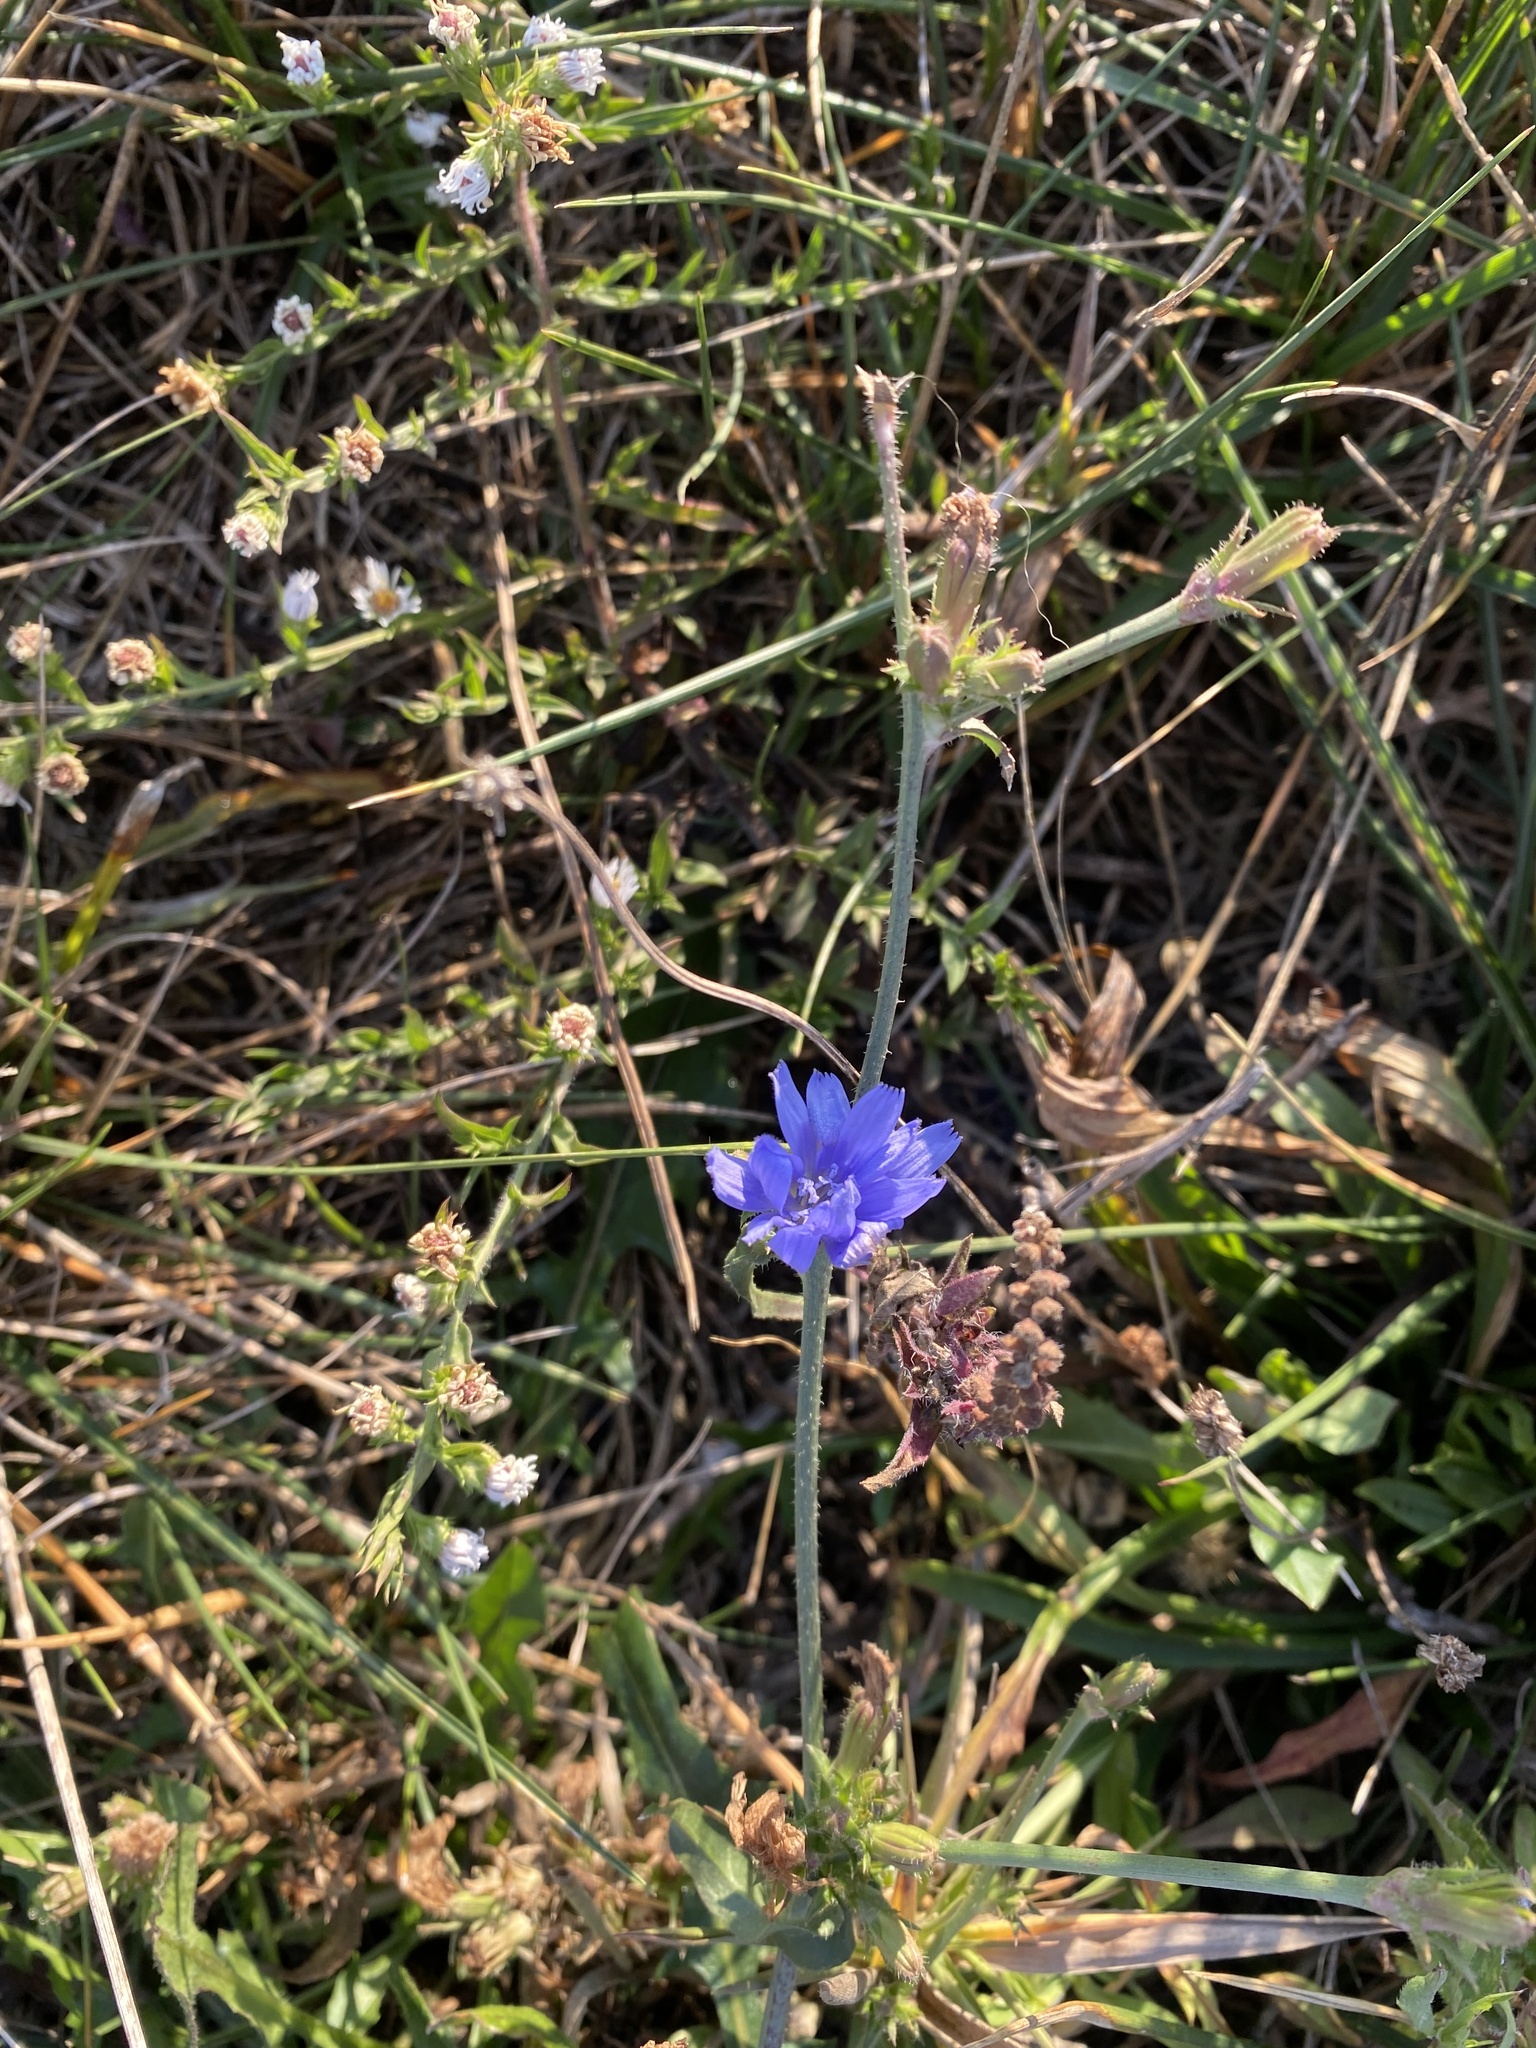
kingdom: Plantae
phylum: Tracheophyta
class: Magnoliopsida
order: Asterales
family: Asteraceae
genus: Cichorium
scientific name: Cichorium intybus
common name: Chicory
